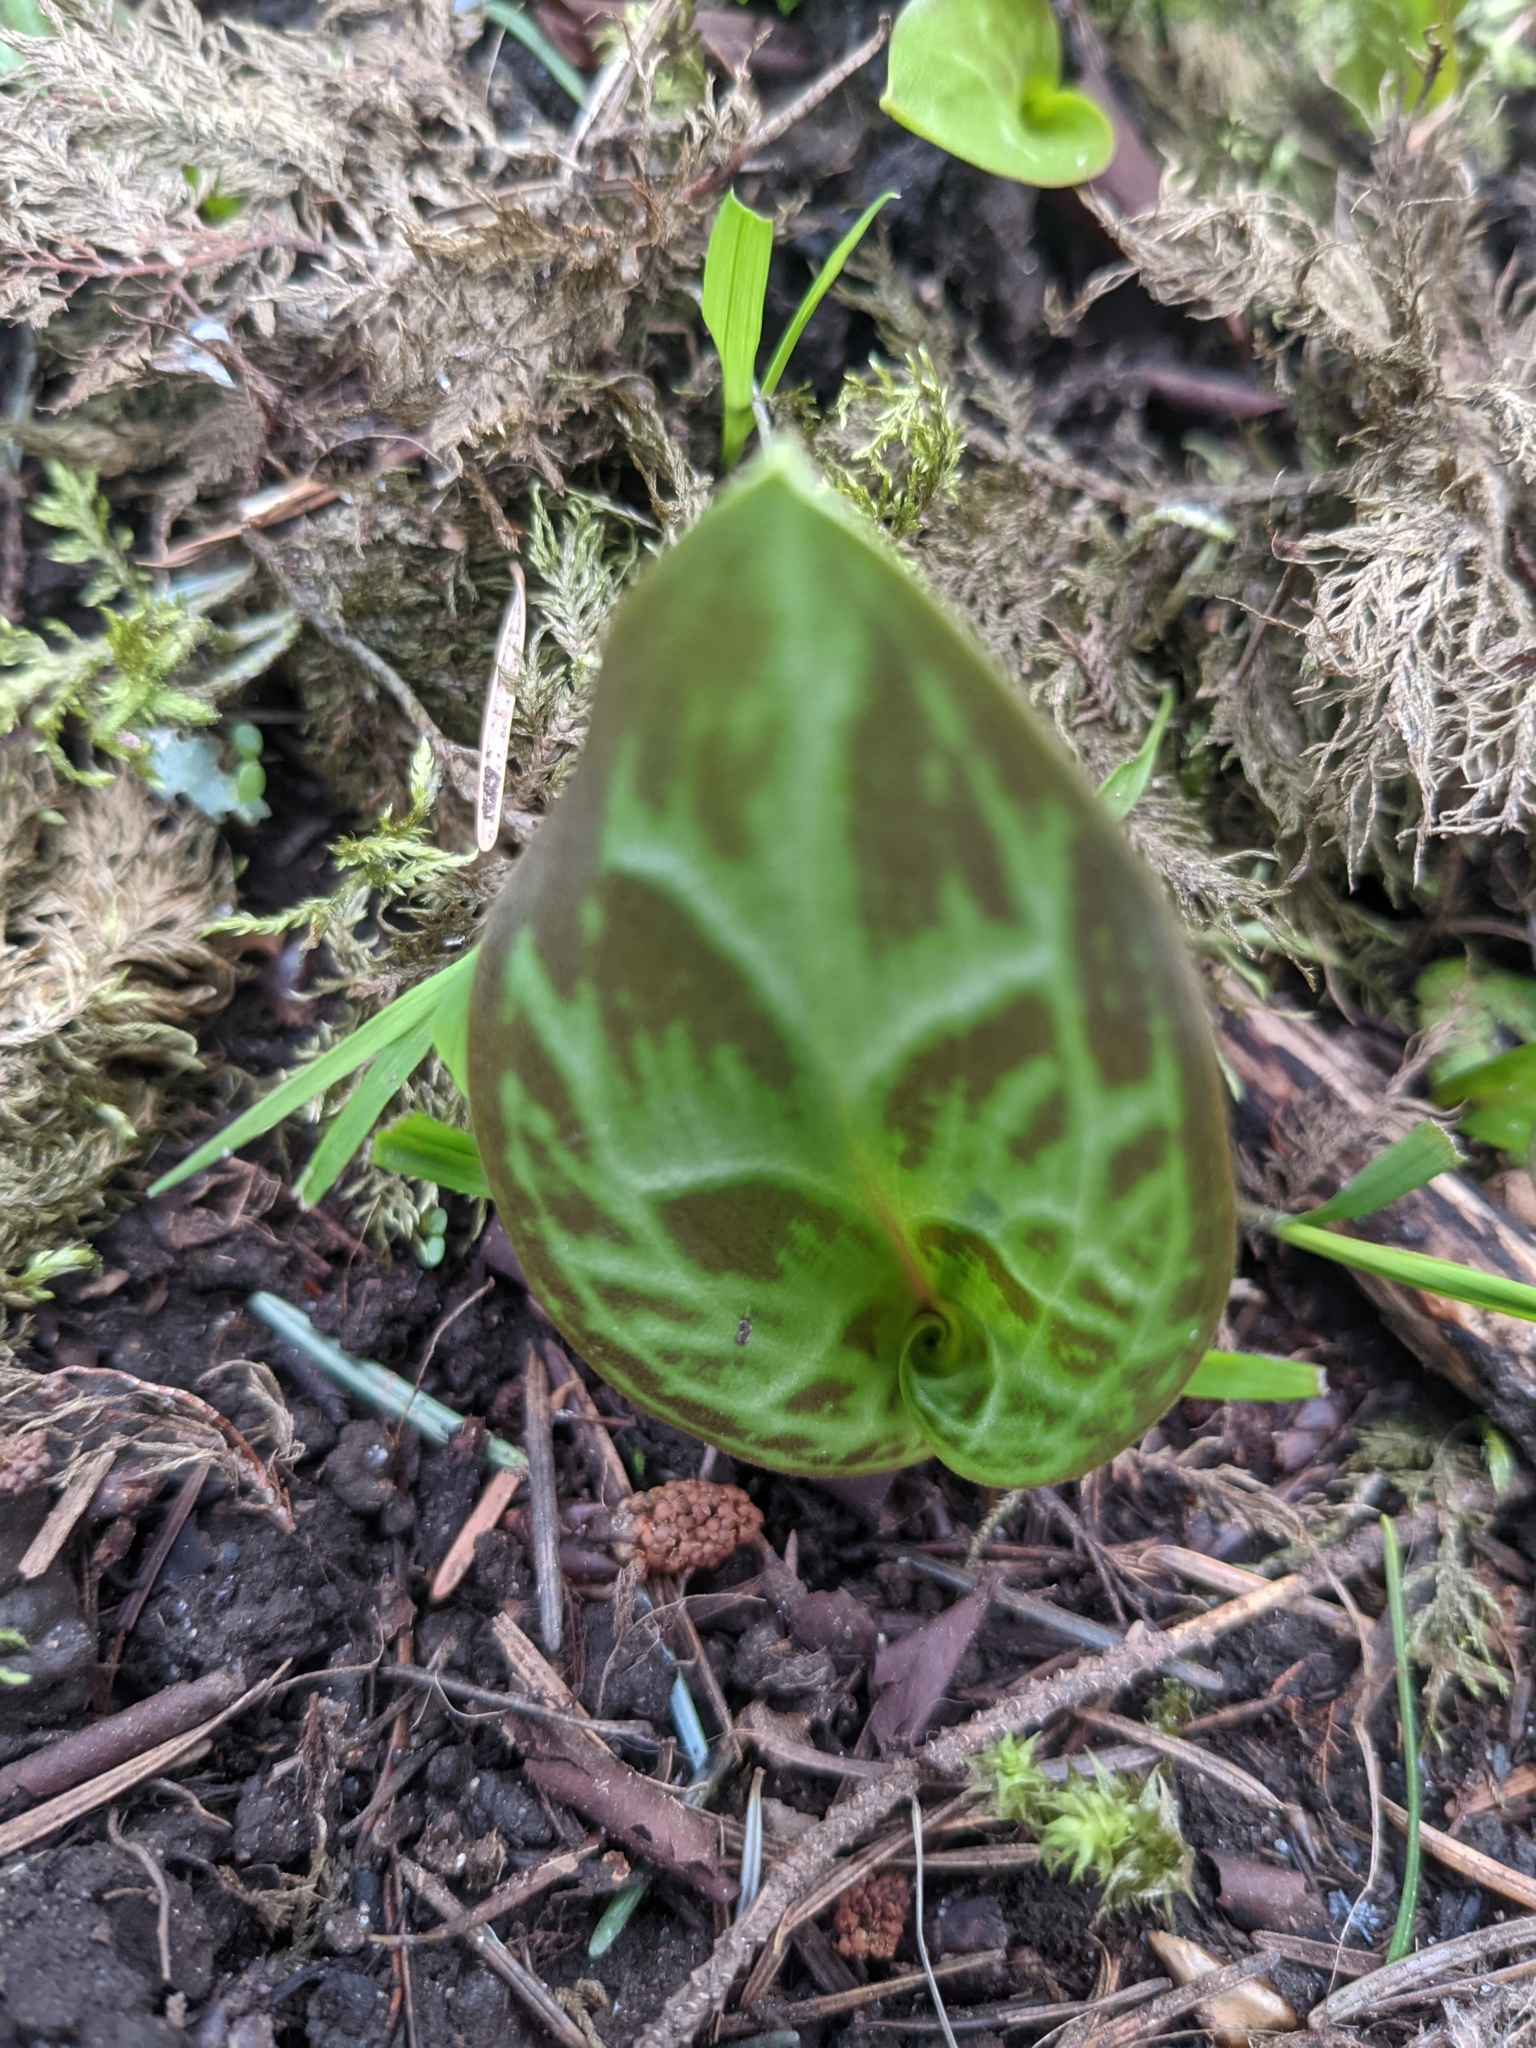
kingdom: Plantae
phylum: Tracheophyta
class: Liliopsida
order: Liliales
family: Liliaceae
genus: Erythronium
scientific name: Erythronium oregonum
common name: Giant adder's-tongue
